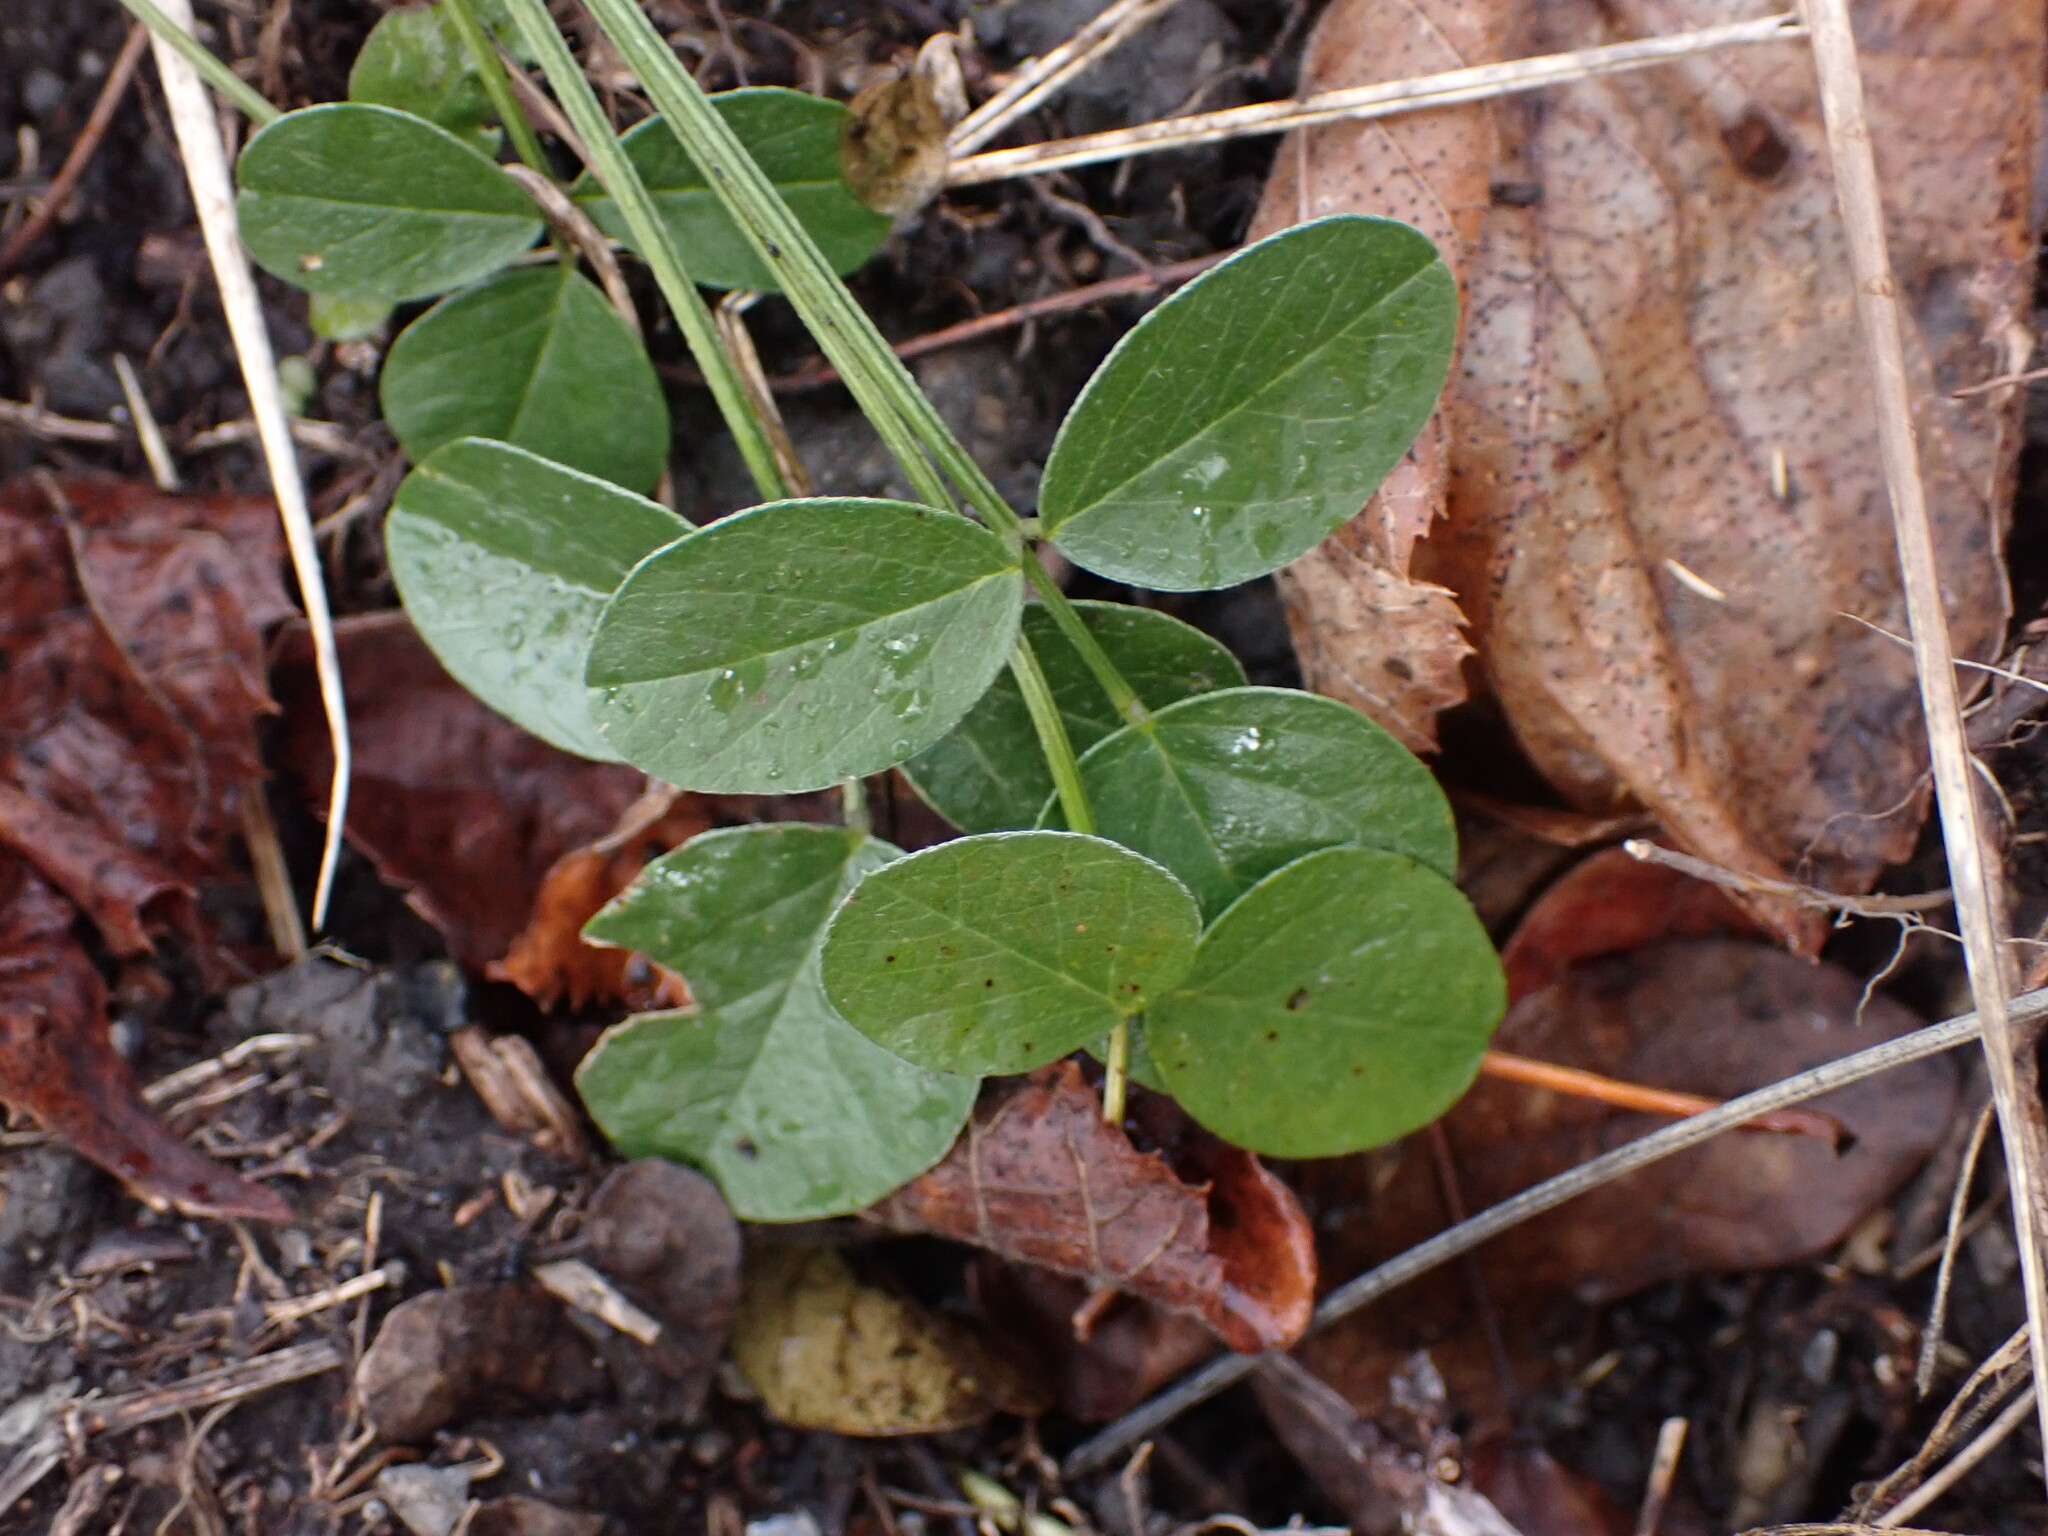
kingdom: Plantae
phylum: Tracheophyta
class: Magnoliopsida
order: Fabales
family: Fabaceae
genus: Bituminaria
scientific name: Bituminaria bituminosa
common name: Arabian pea
